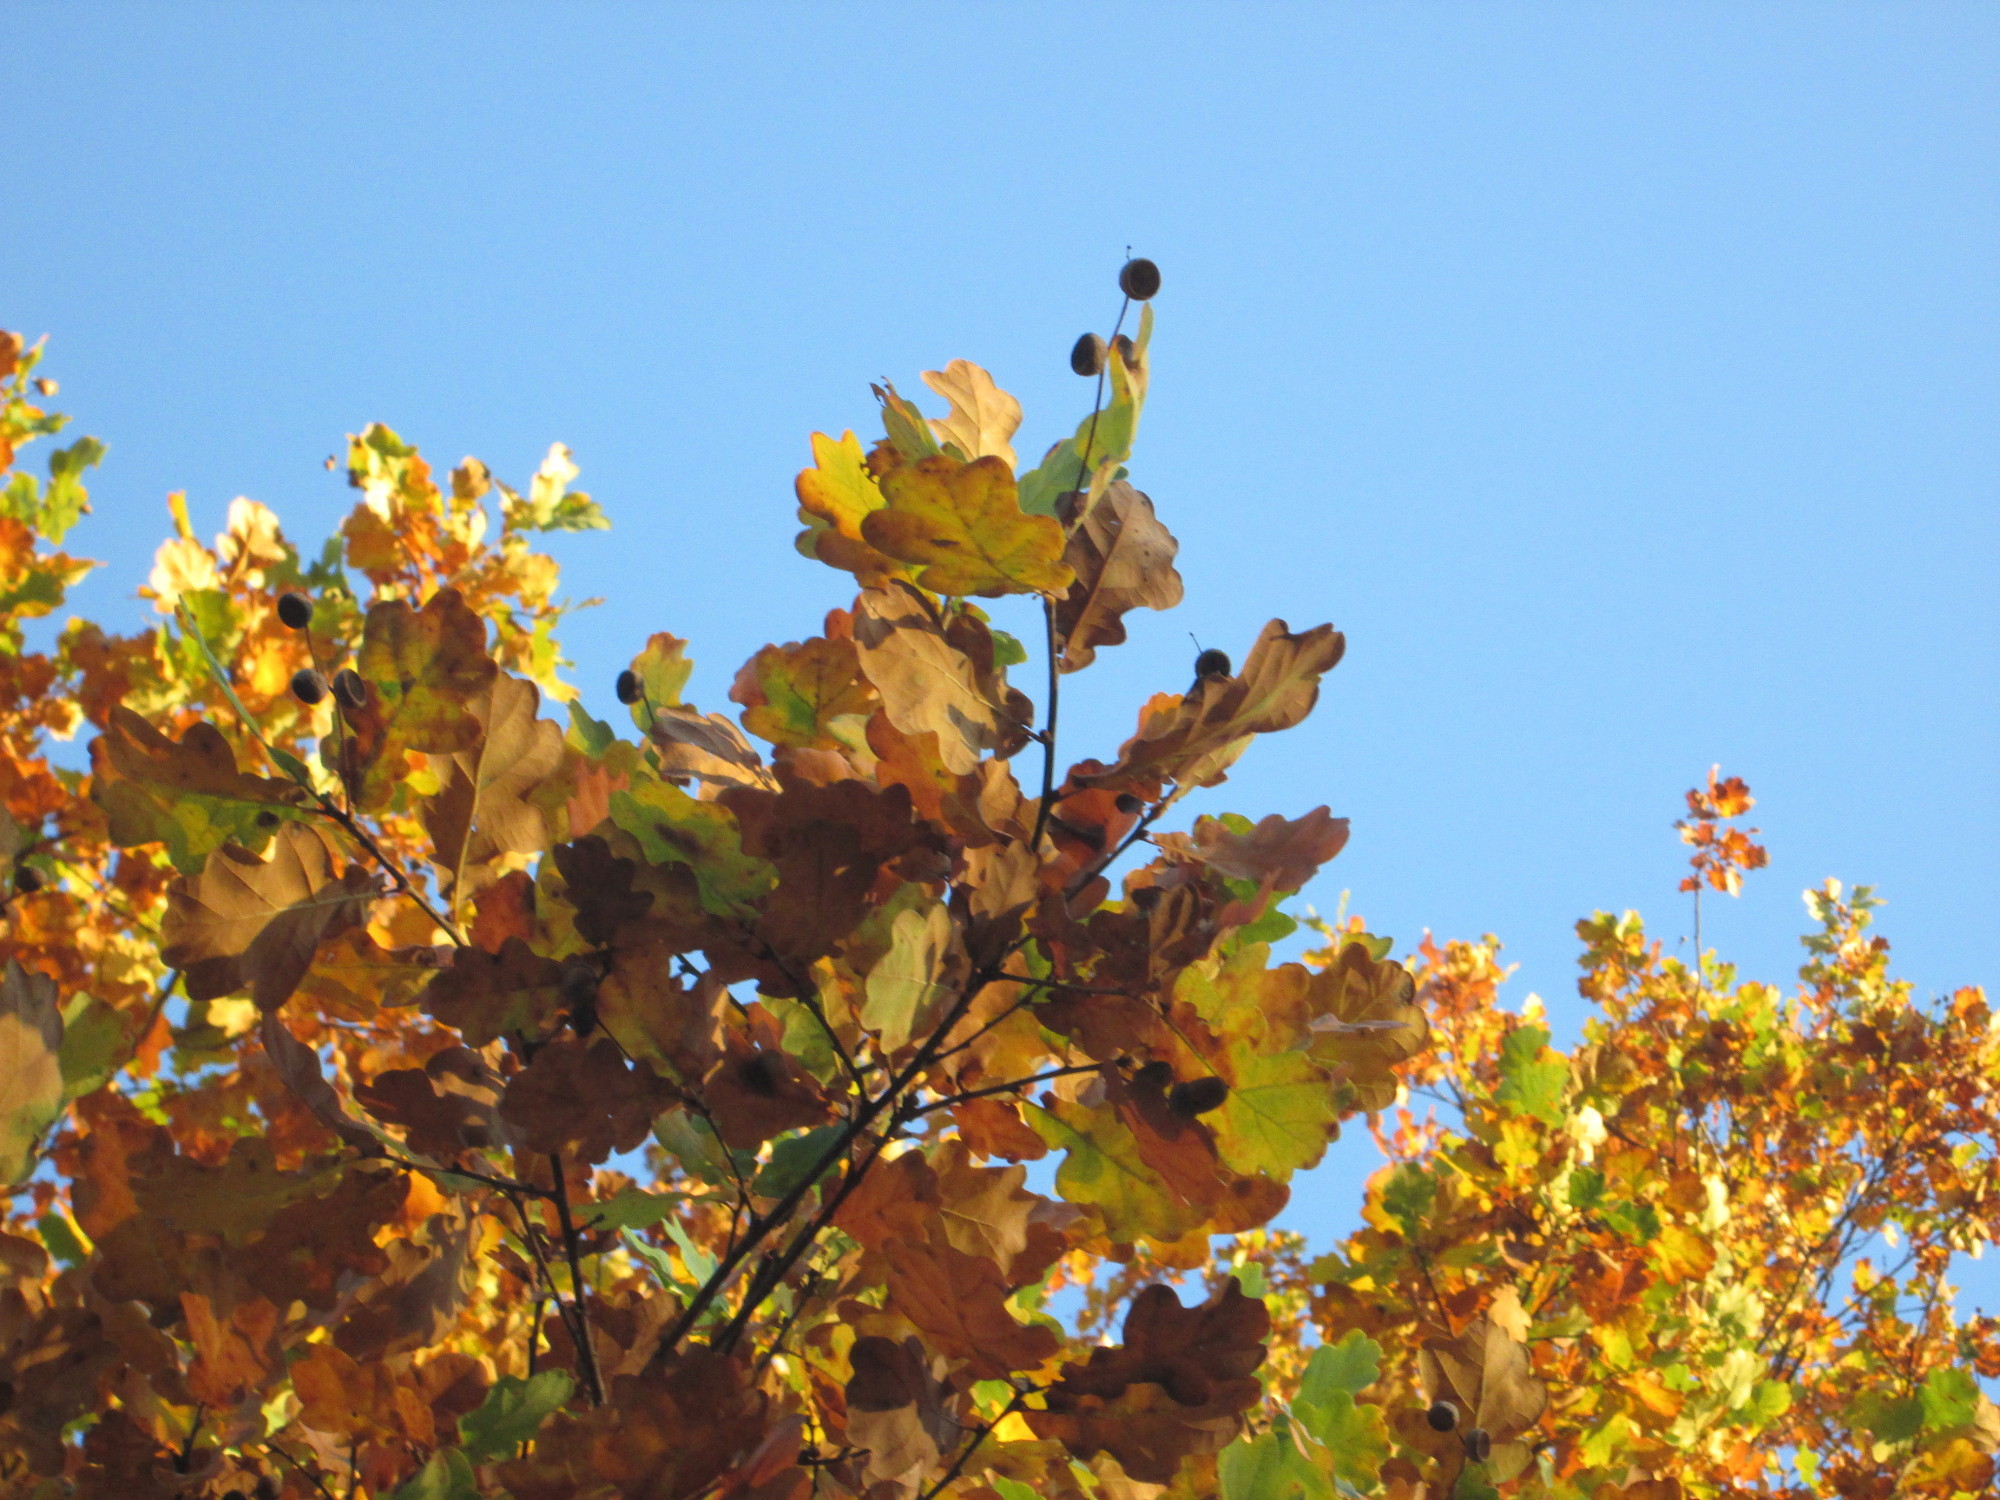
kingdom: Plantae
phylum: Tracheophyta
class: Magnoliopsida
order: Fagales
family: Fagaceae
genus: Quercus
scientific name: Quercus robur
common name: Pedunculate oak
